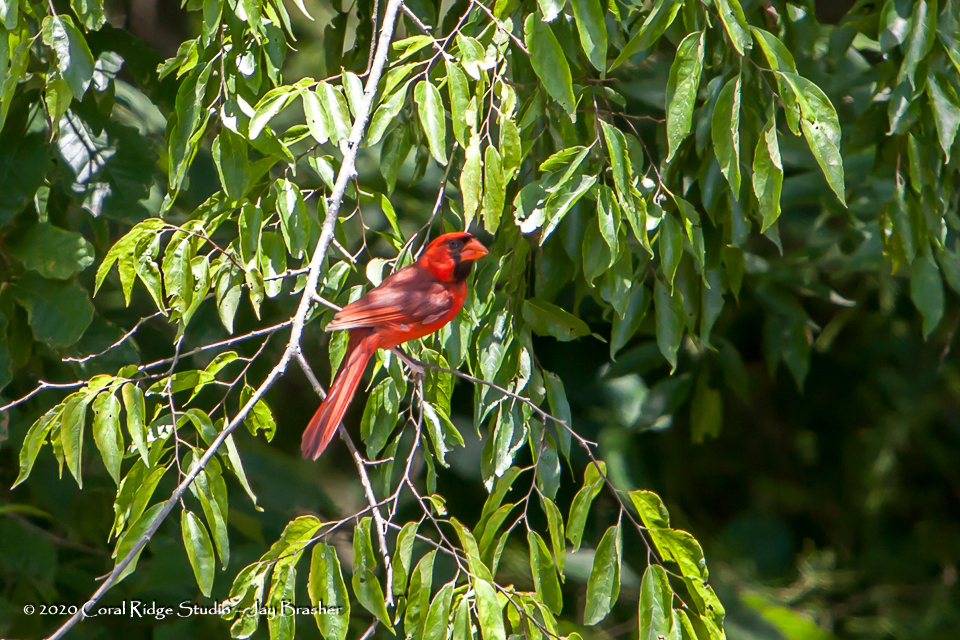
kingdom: Animalia
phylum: Chordata
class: Aves
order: Passeriformes
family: Cardinalidae
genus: Cardinalis
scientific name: Cardinalis cardinalis
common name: Northern cardinal
